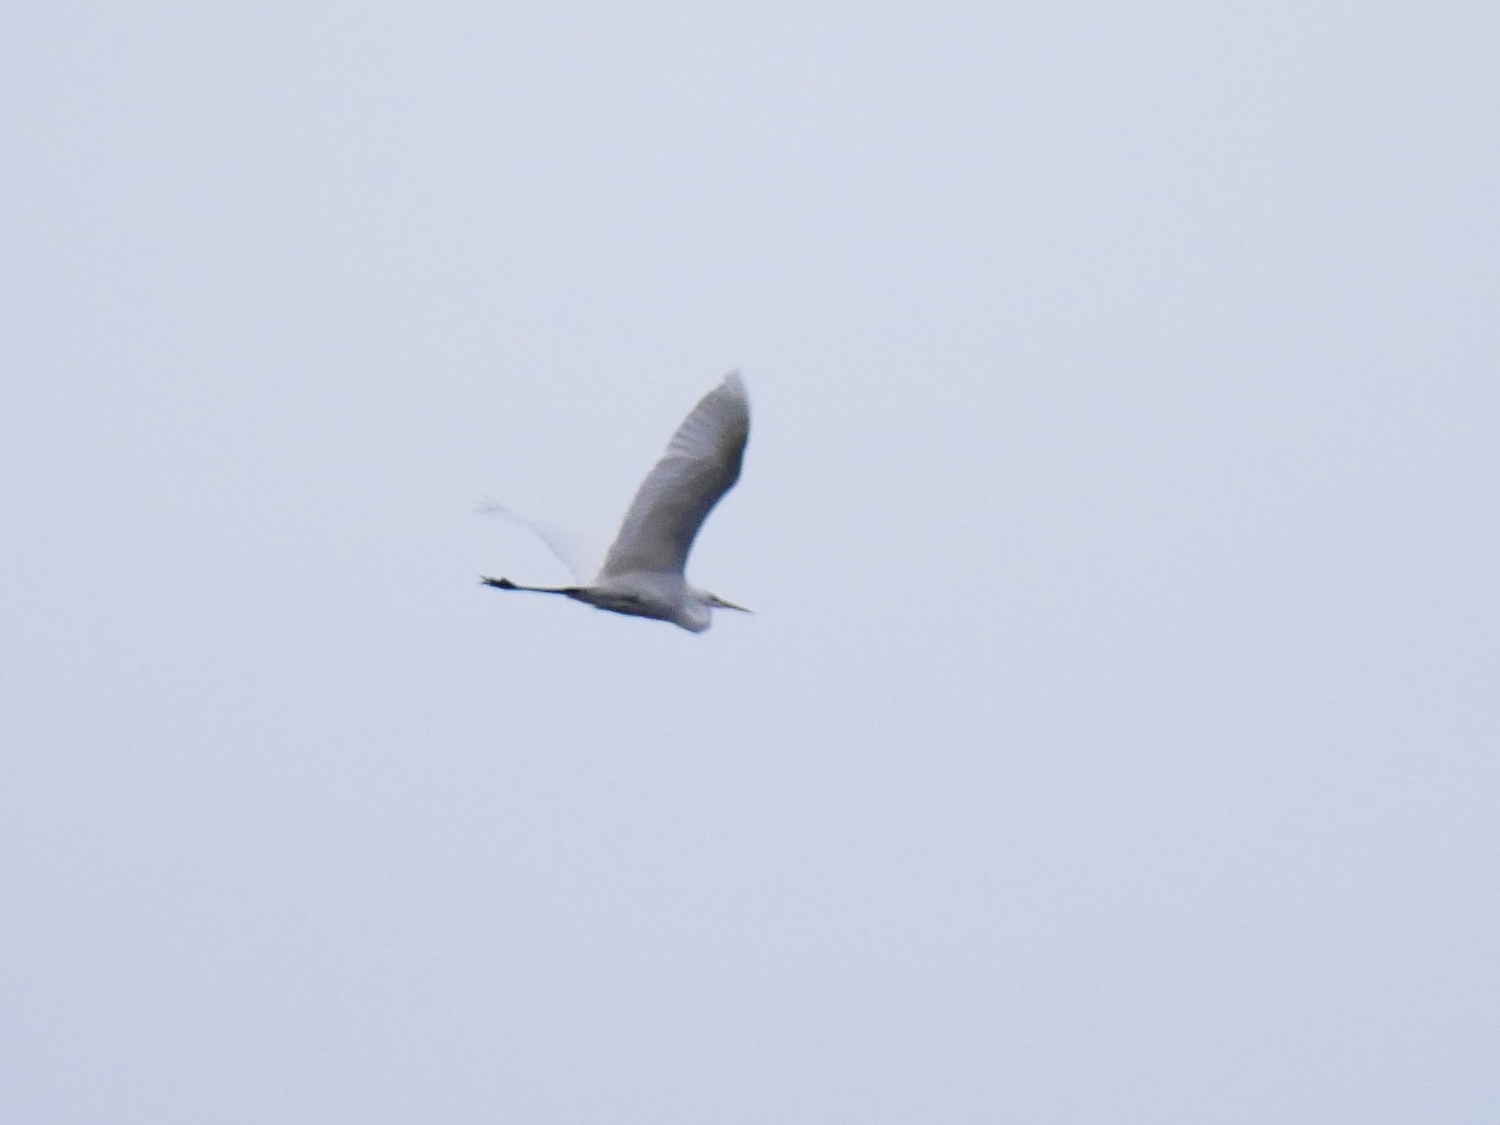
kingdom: Animalia
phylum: Chordata
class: Aves
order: Pelecaniformes
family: Ardeidae
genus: Ardea
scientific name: Ardea alba
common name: Great egret
